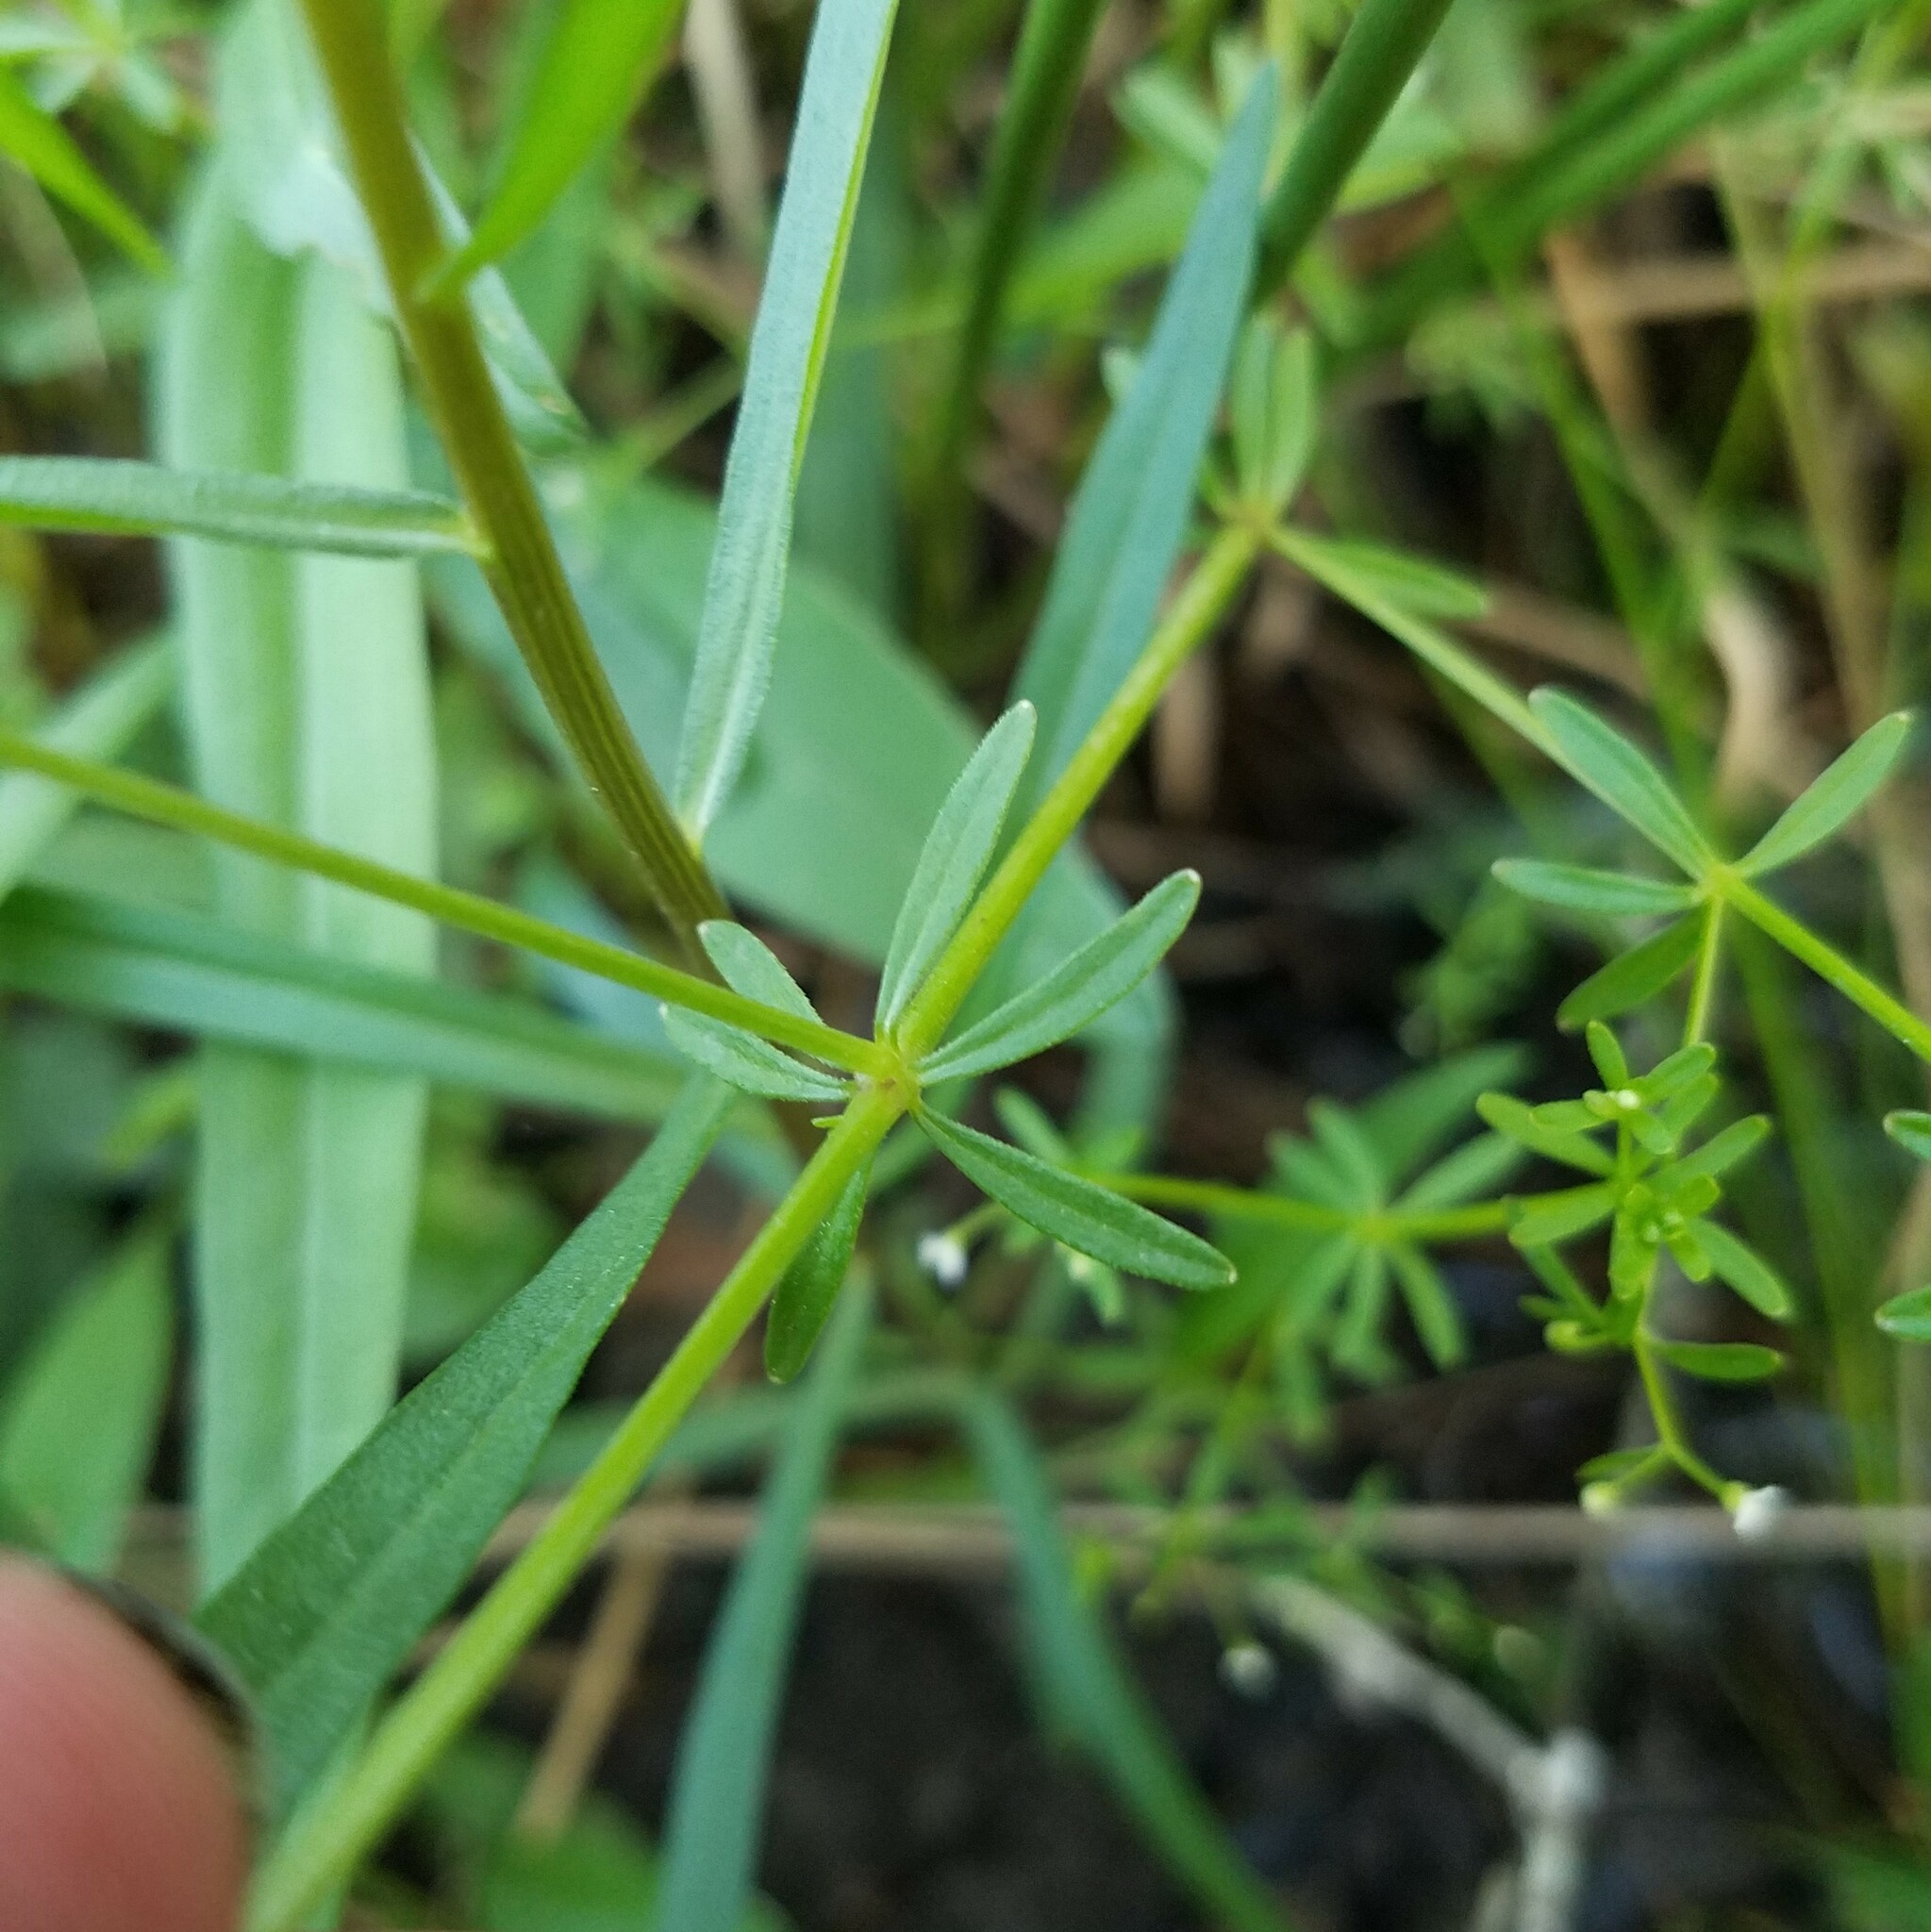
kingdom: Plantae
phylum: Tracheophyta
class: Magnoliopsida
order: Gentianales
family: Rubiaceae
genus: Galium
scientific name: Galium tinctorium
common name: Bedstraw
